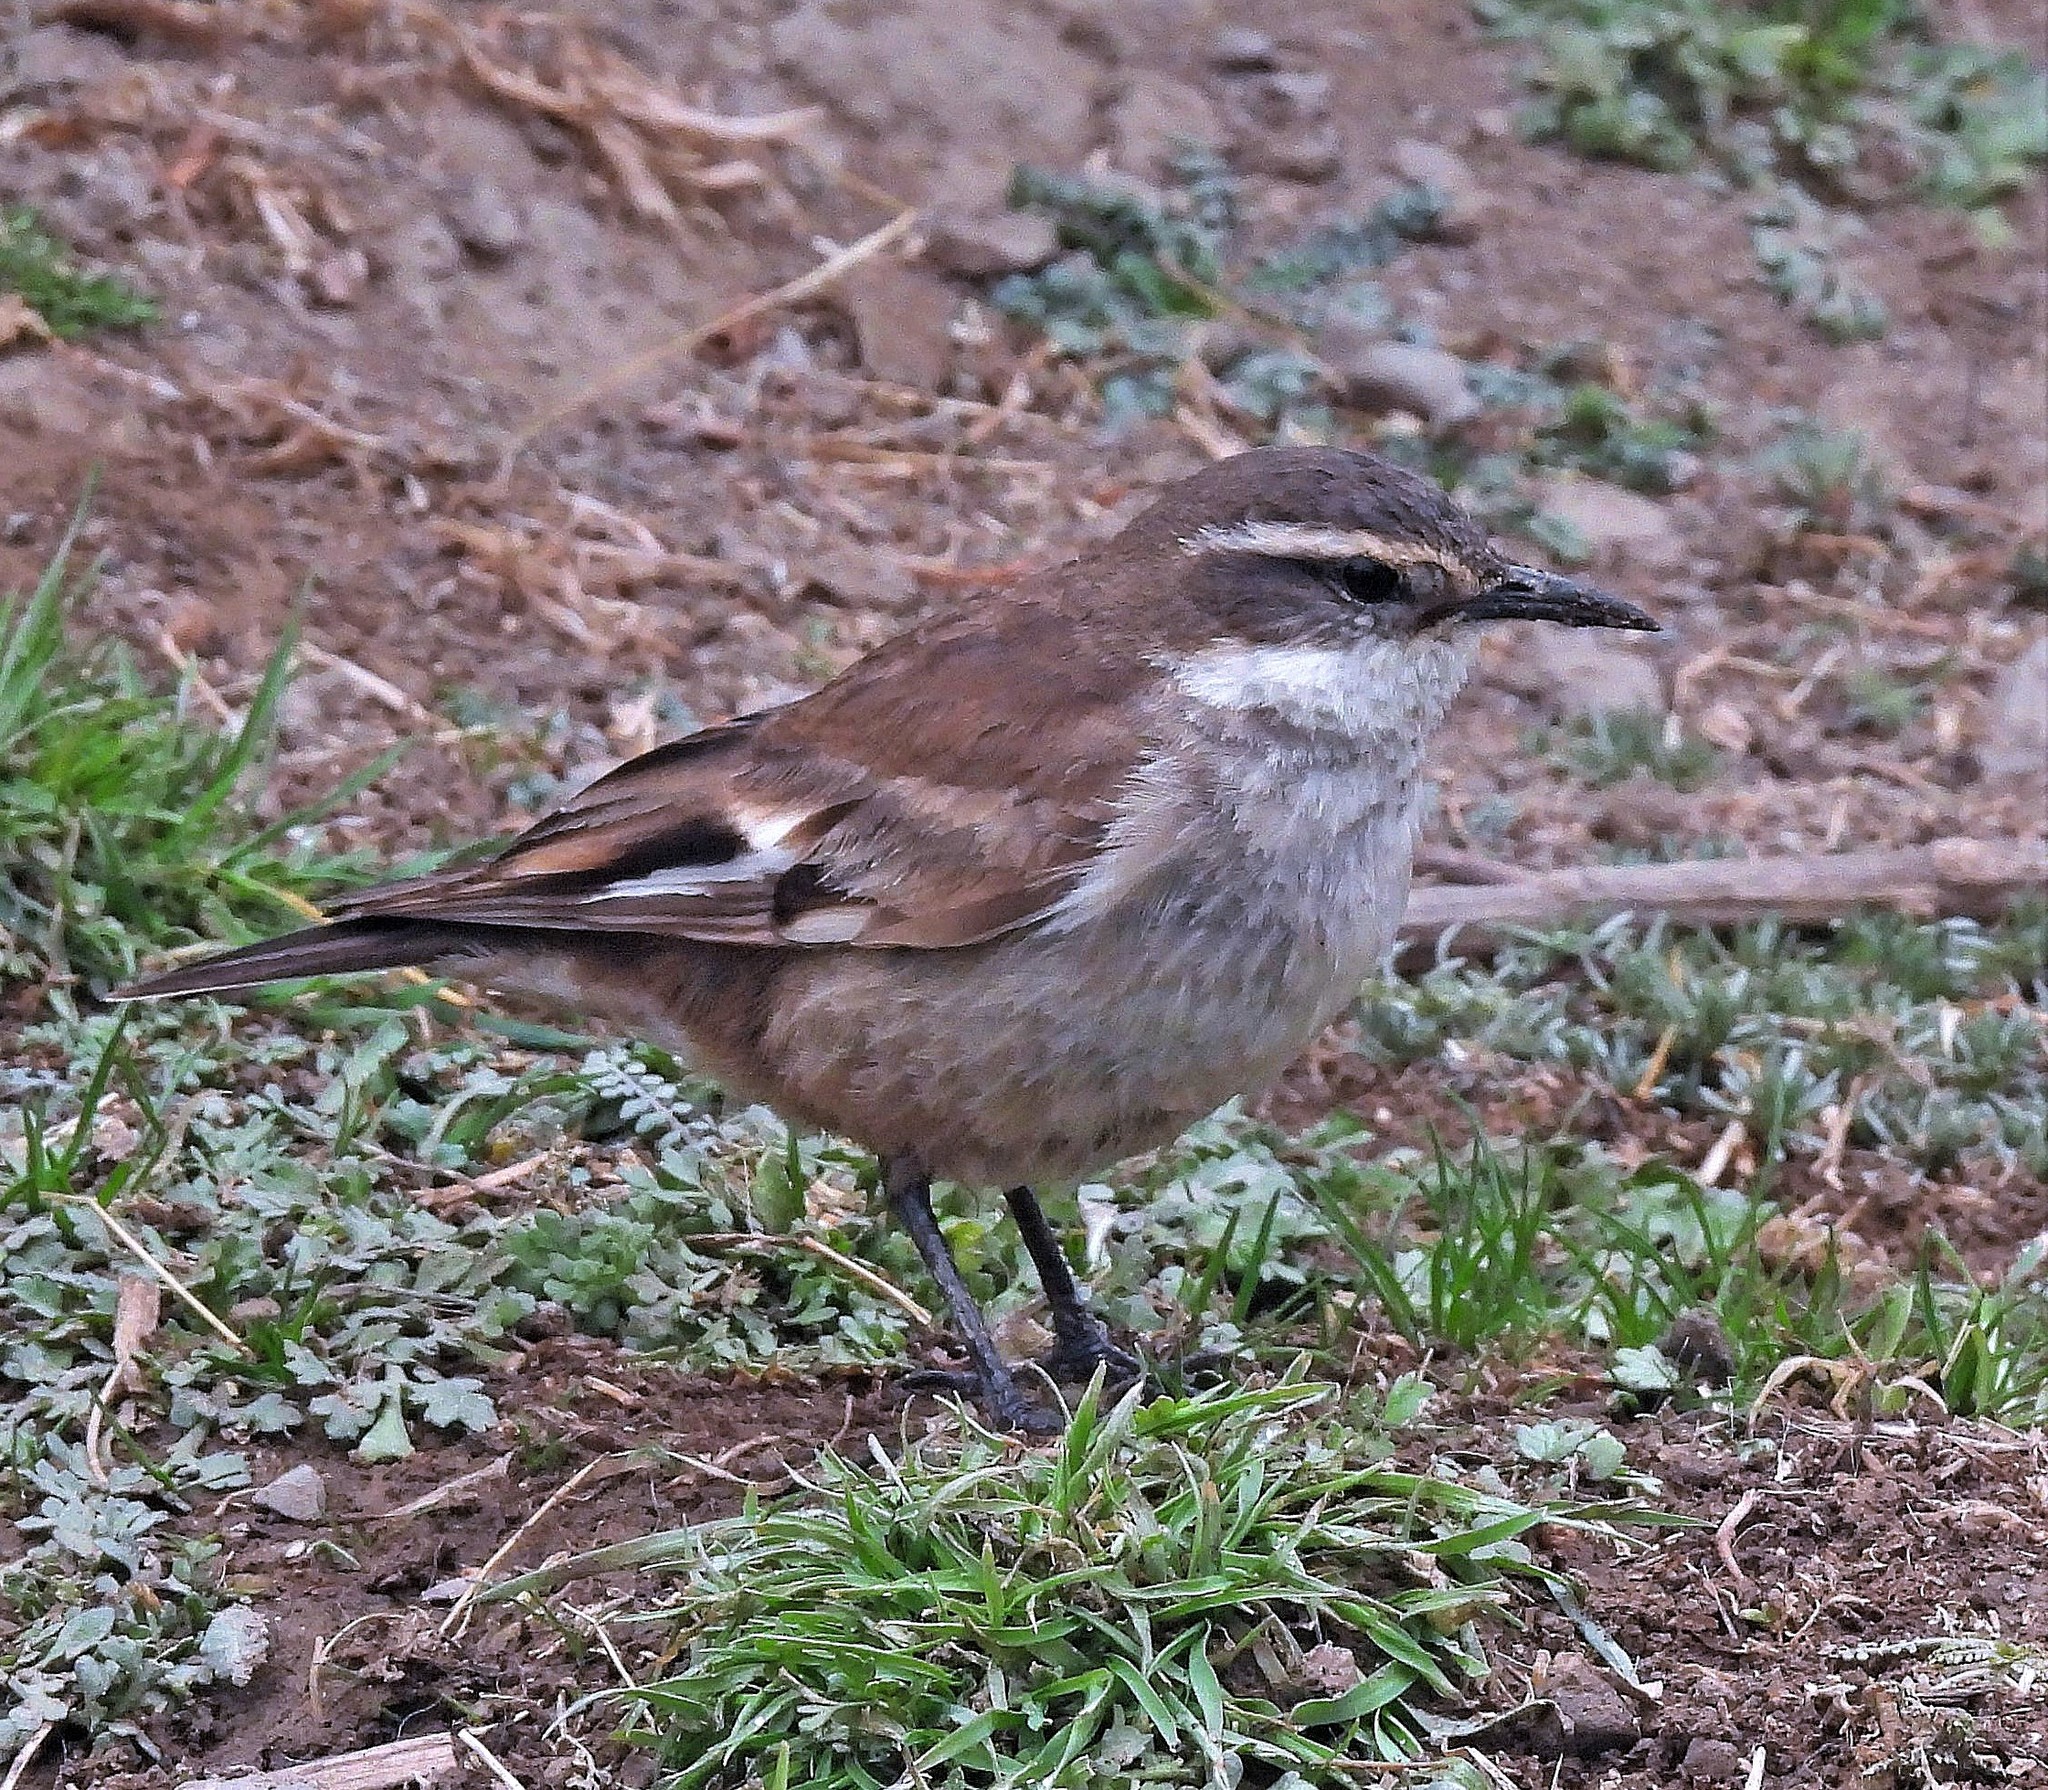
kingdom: Animalia
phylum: Chordata
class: Aves
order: Passeriformes
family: Furnariidae
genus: Cinclodes
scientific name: Cinclodes fuscus
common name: Buff-winged cinclodes
